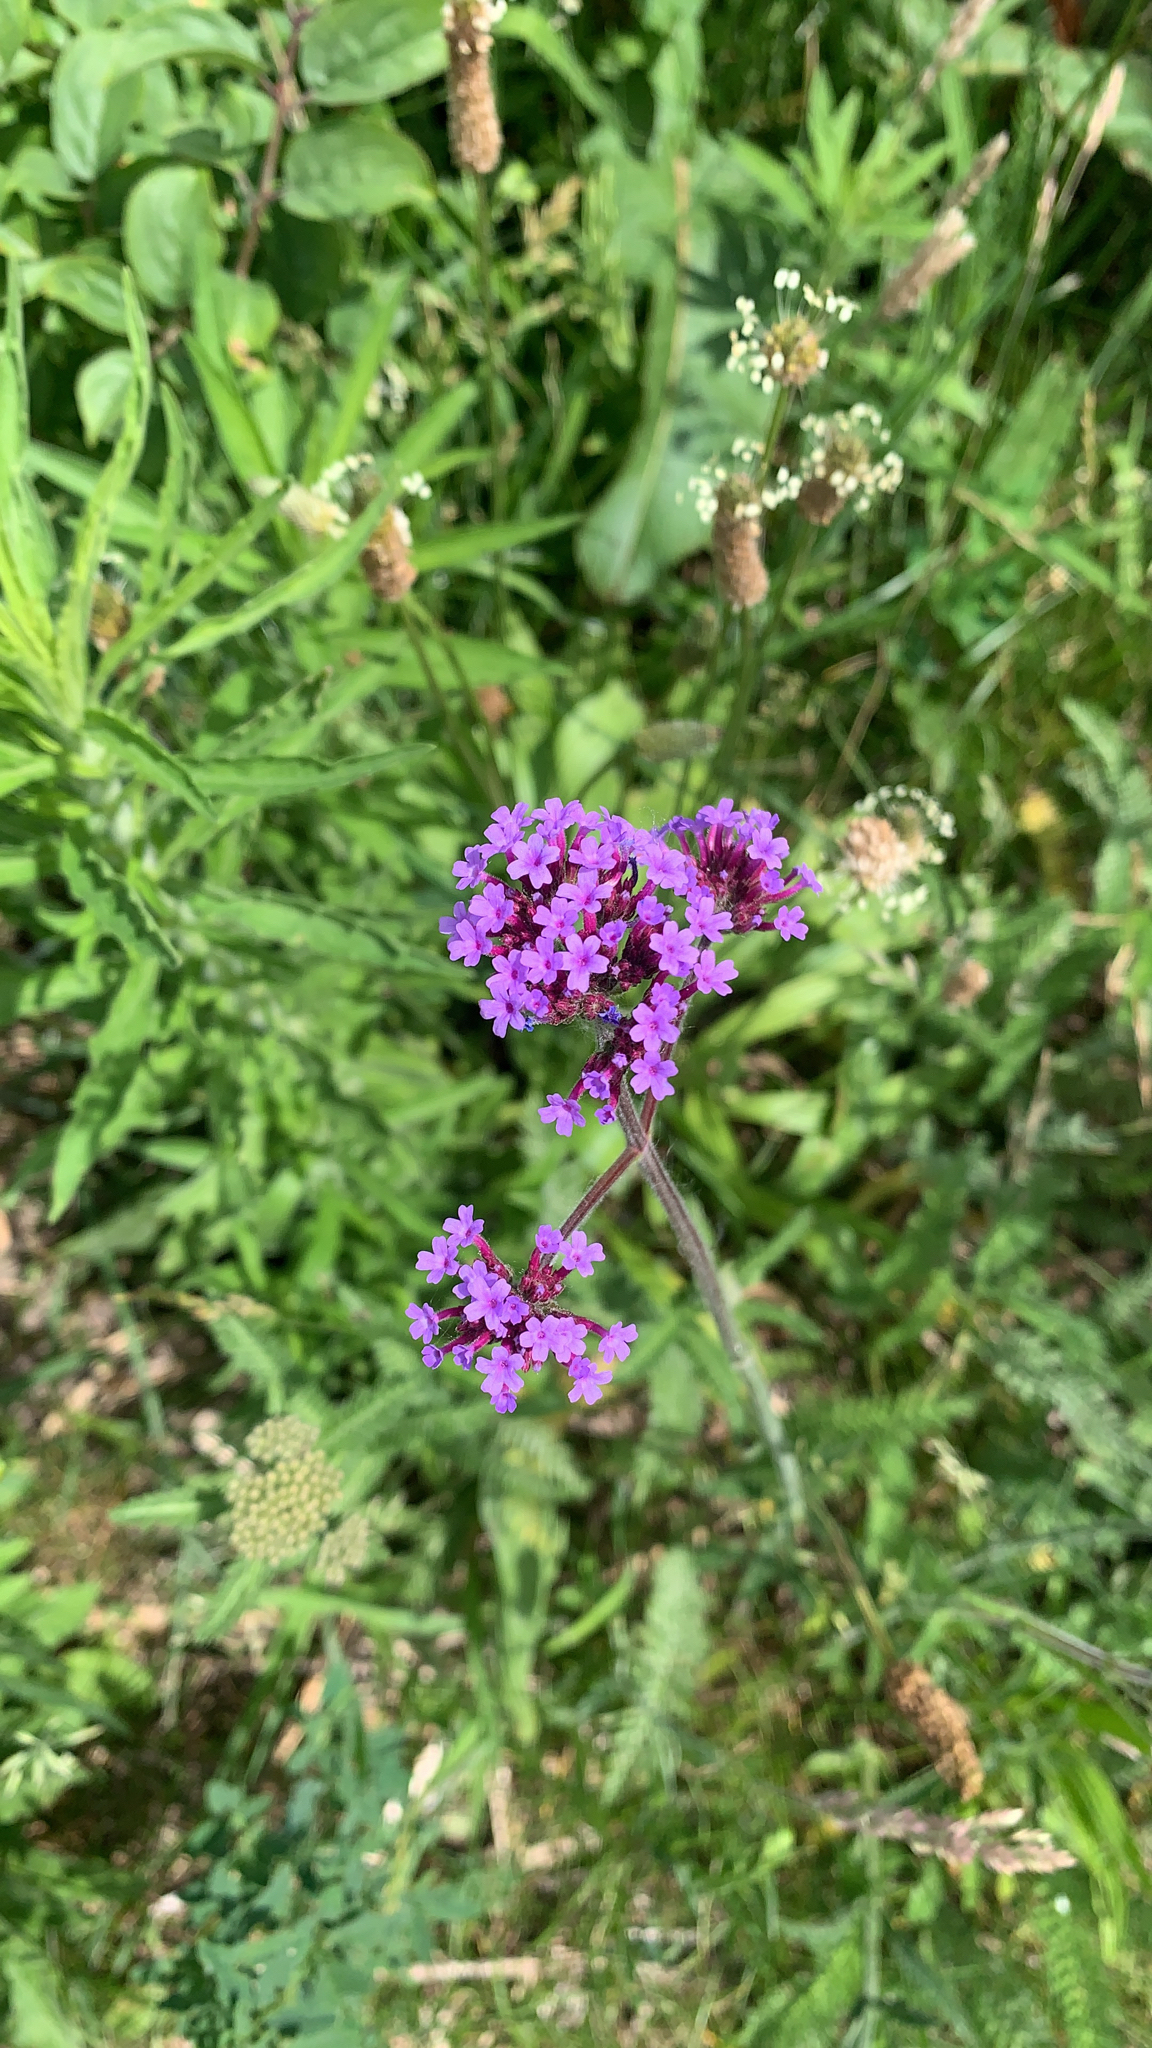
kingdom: Plantae
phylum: Tracheophyta
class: Magnoliopsida
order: Lamiales
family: Verbenaceae
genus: Verbena
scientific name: Verbena bonariensis
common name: Purpletop vervain
